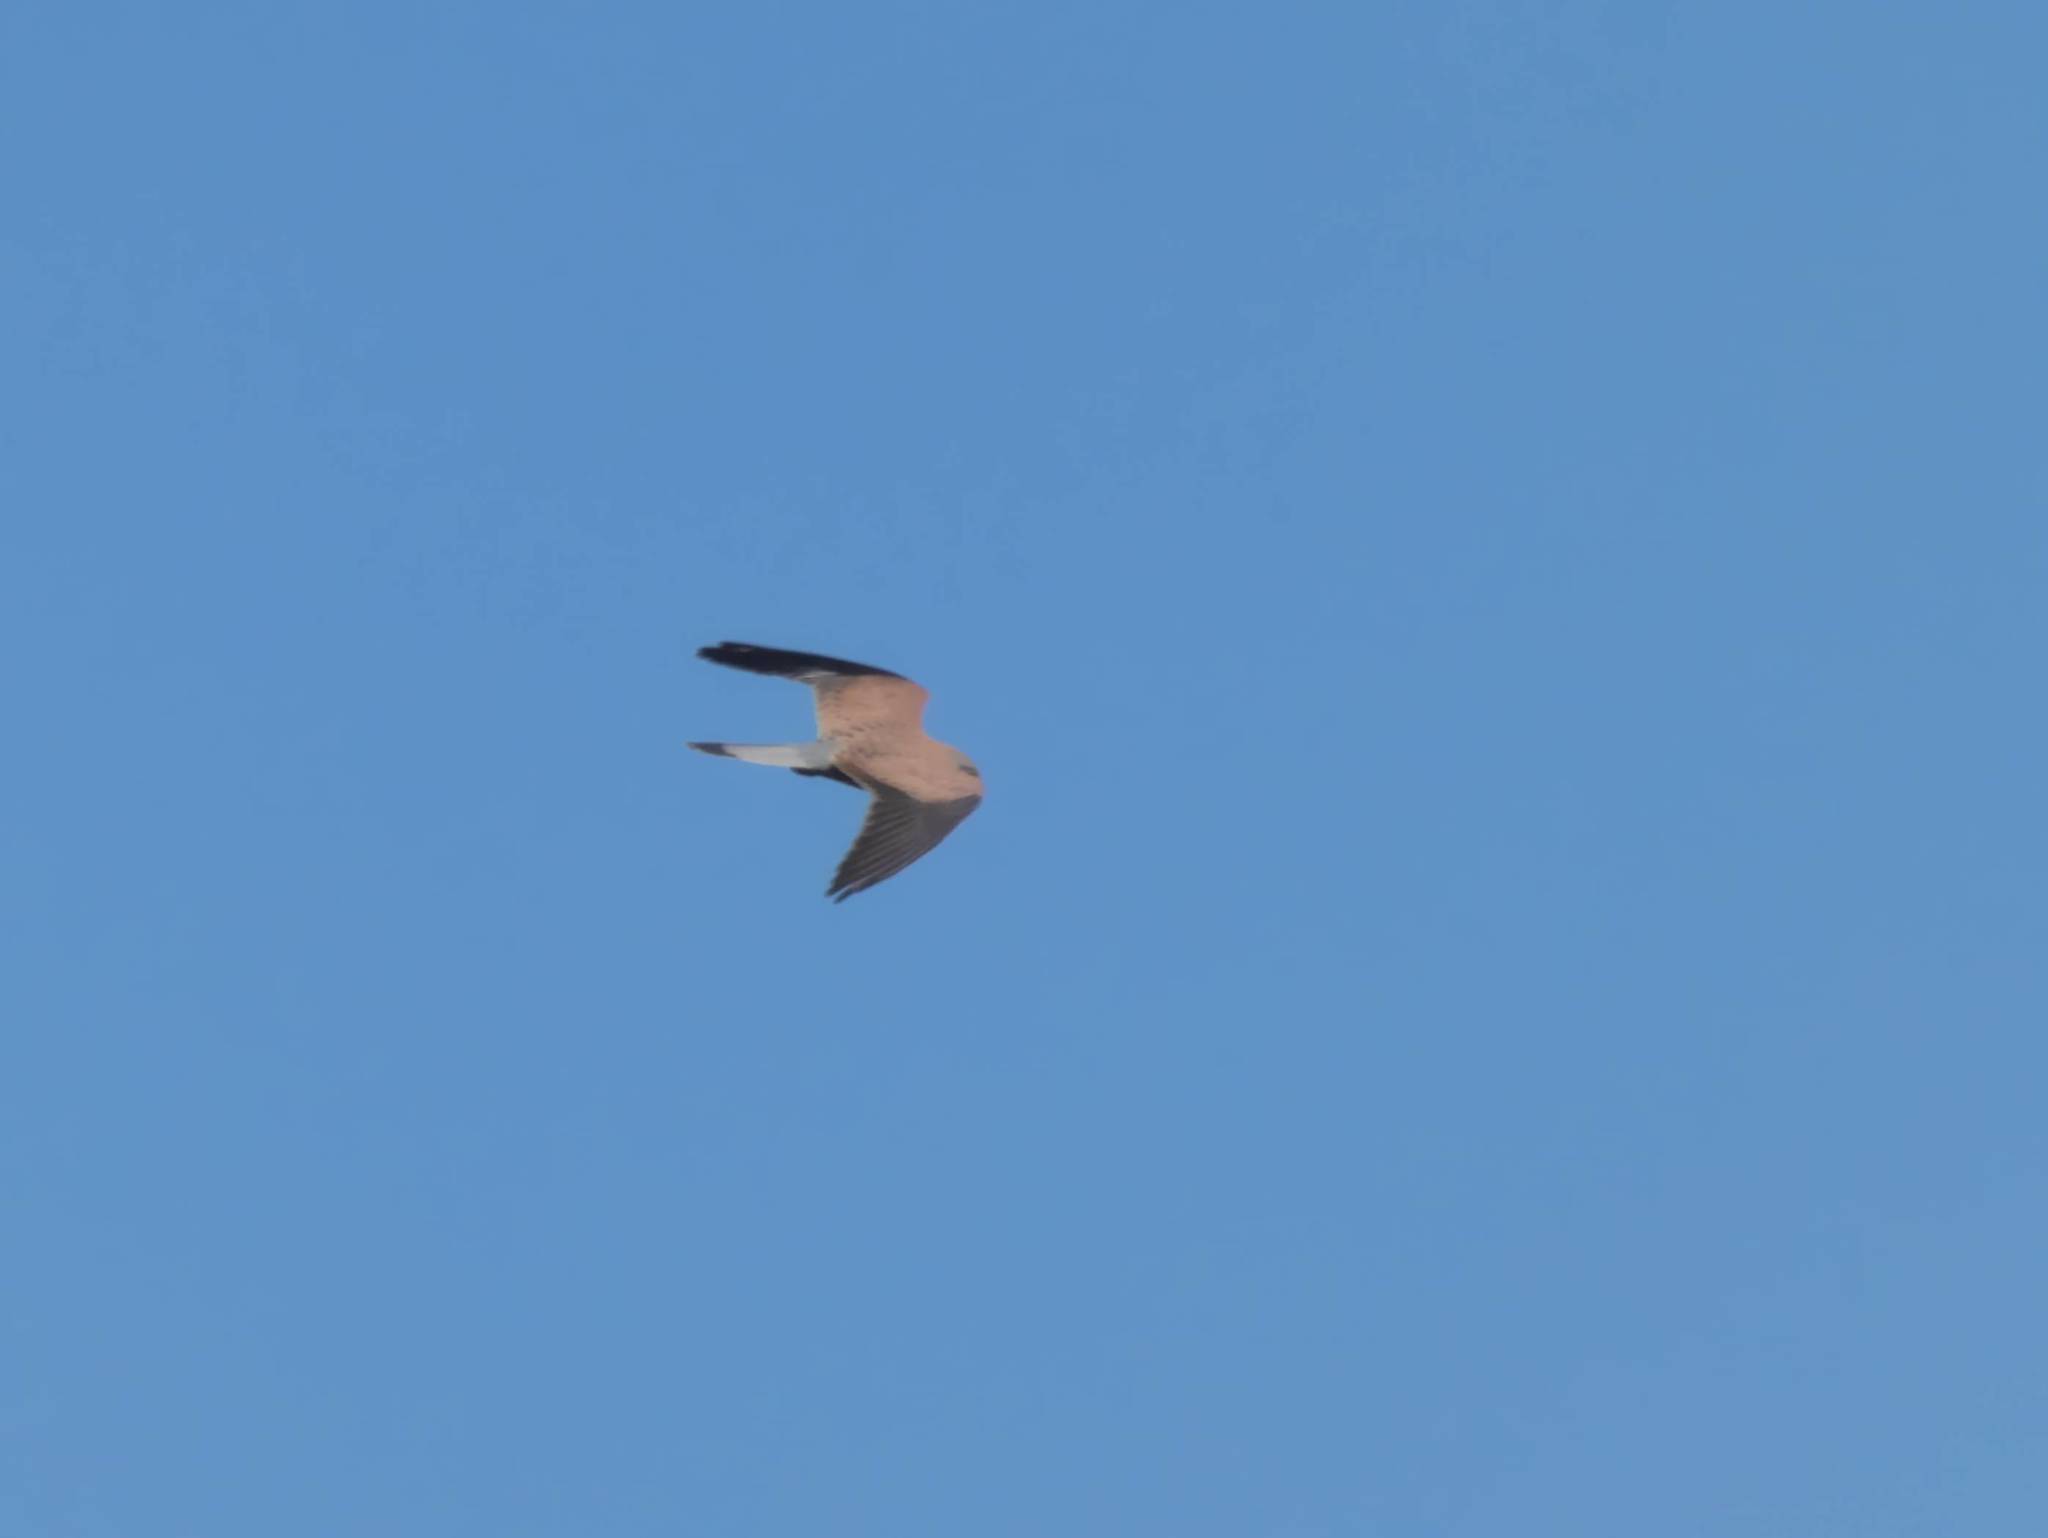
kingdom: Animalia
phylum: Chordata
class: Aves
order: Falconiformes
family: Falconidae
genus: Falco
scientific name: Falco tinnunculus
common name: Common kestrel
